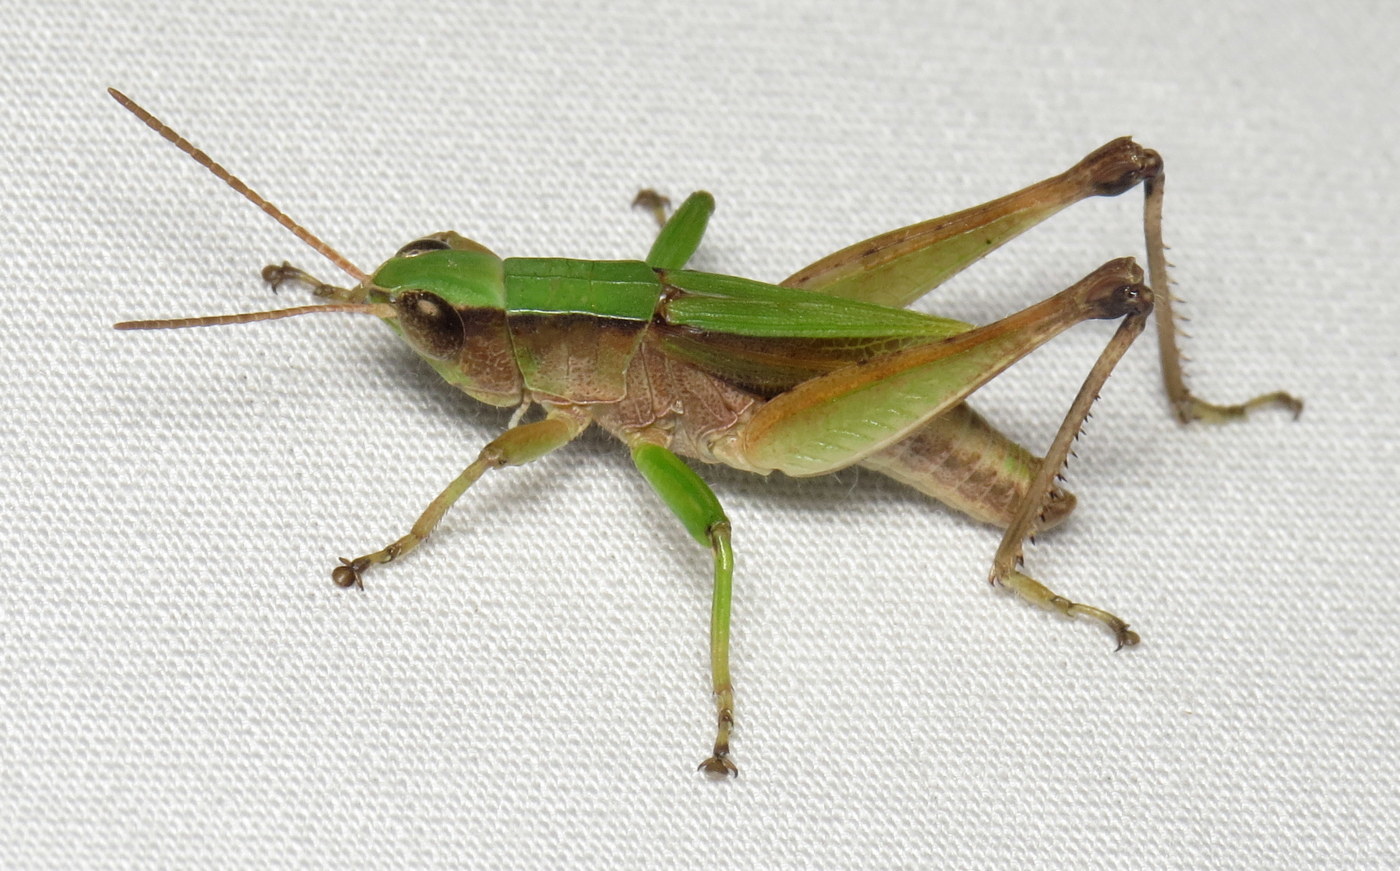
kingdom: Animalia
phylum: Arthropoda
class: Insecta
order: Orthoptera
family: Acrididae
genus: Dichromorpha
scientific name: Dichromorpha viridis
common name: Short-winged green grasshopper
